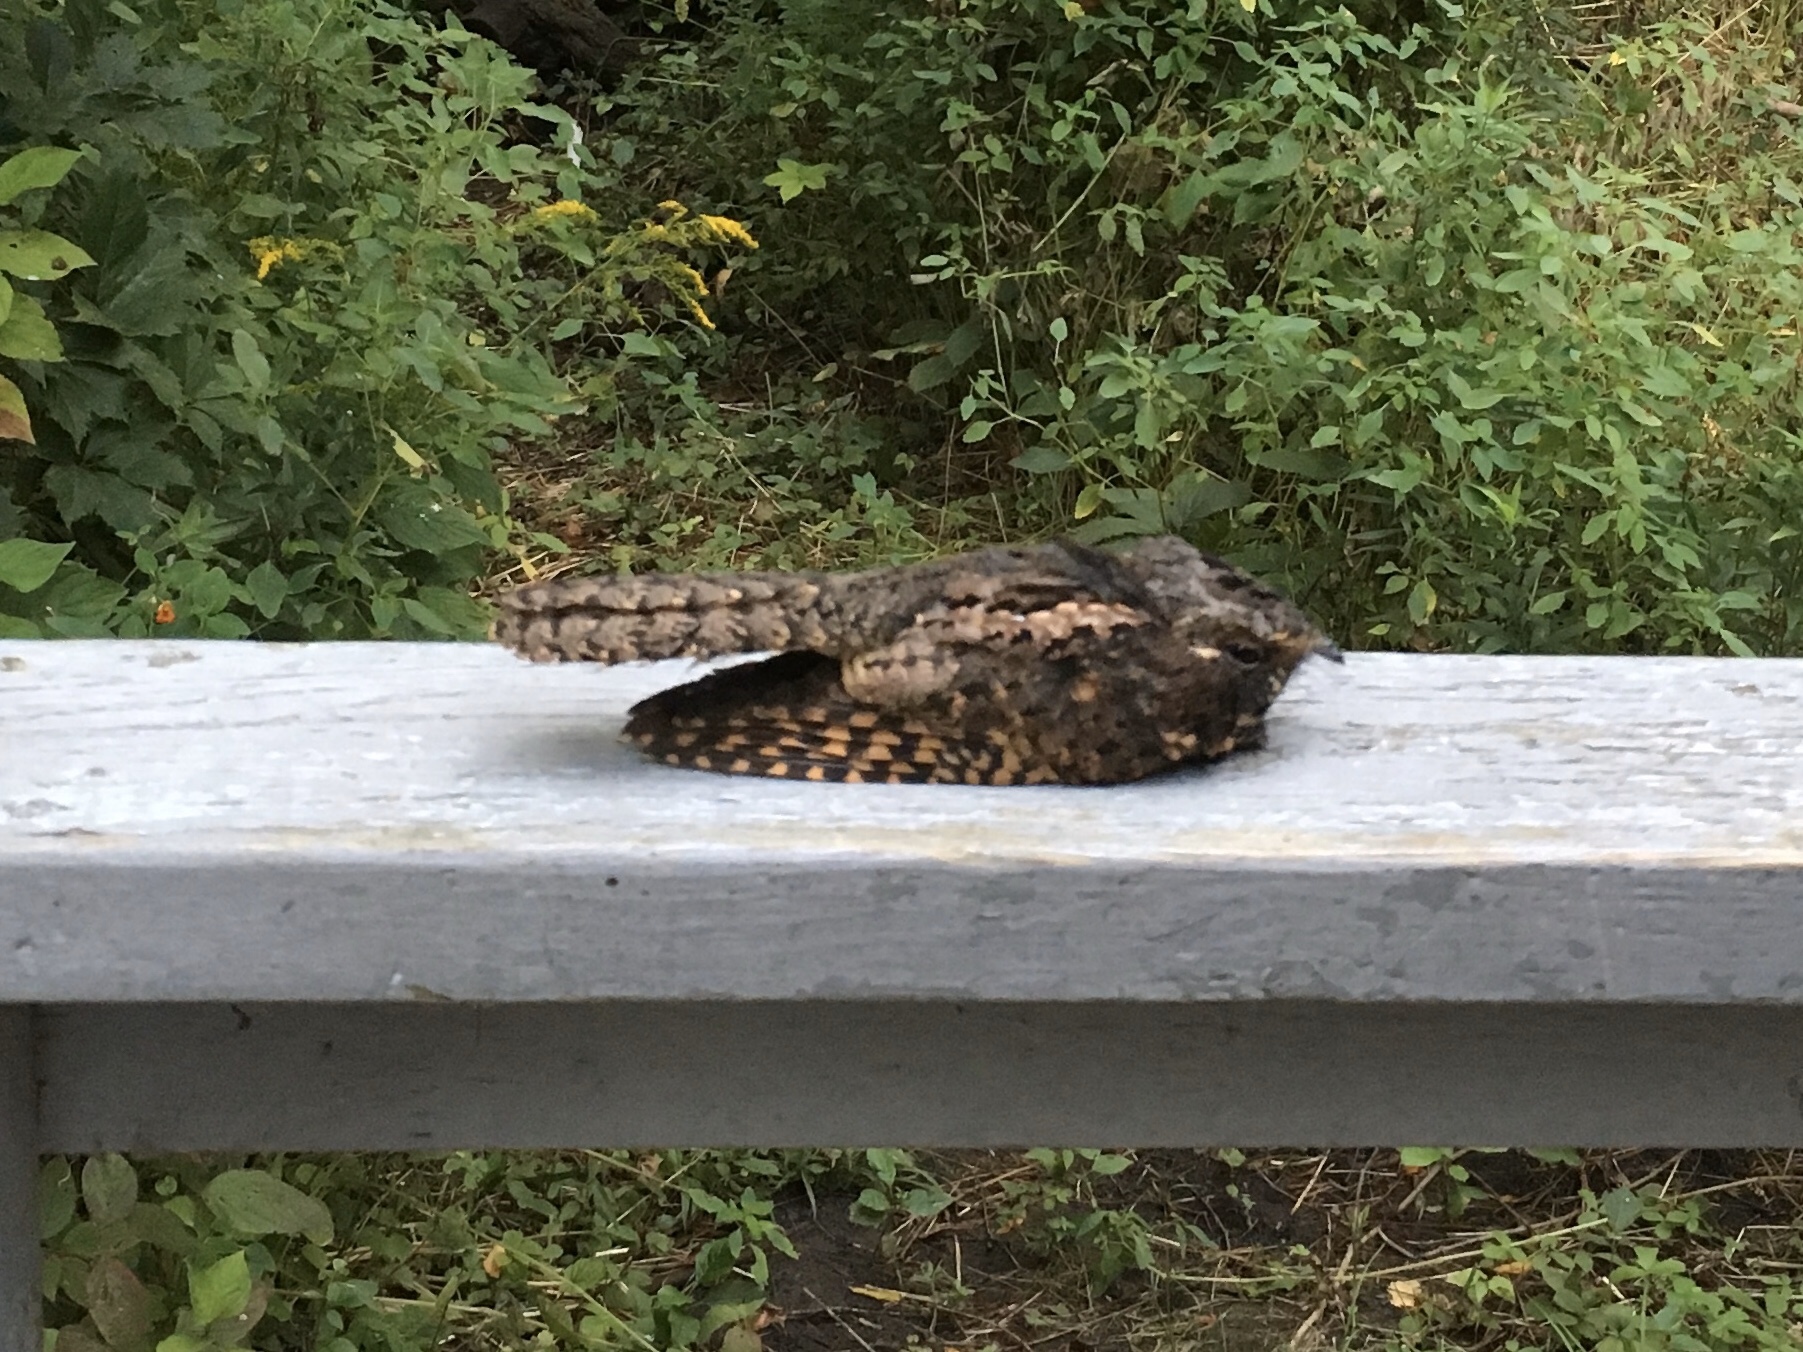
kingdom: Animalia
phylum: Chordata
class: Aves
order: Caprimulgiformes
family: Caprimulgidae
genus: Antrostomus
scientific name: Antrostomus vociferus
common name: Eastern whip-poor-will
